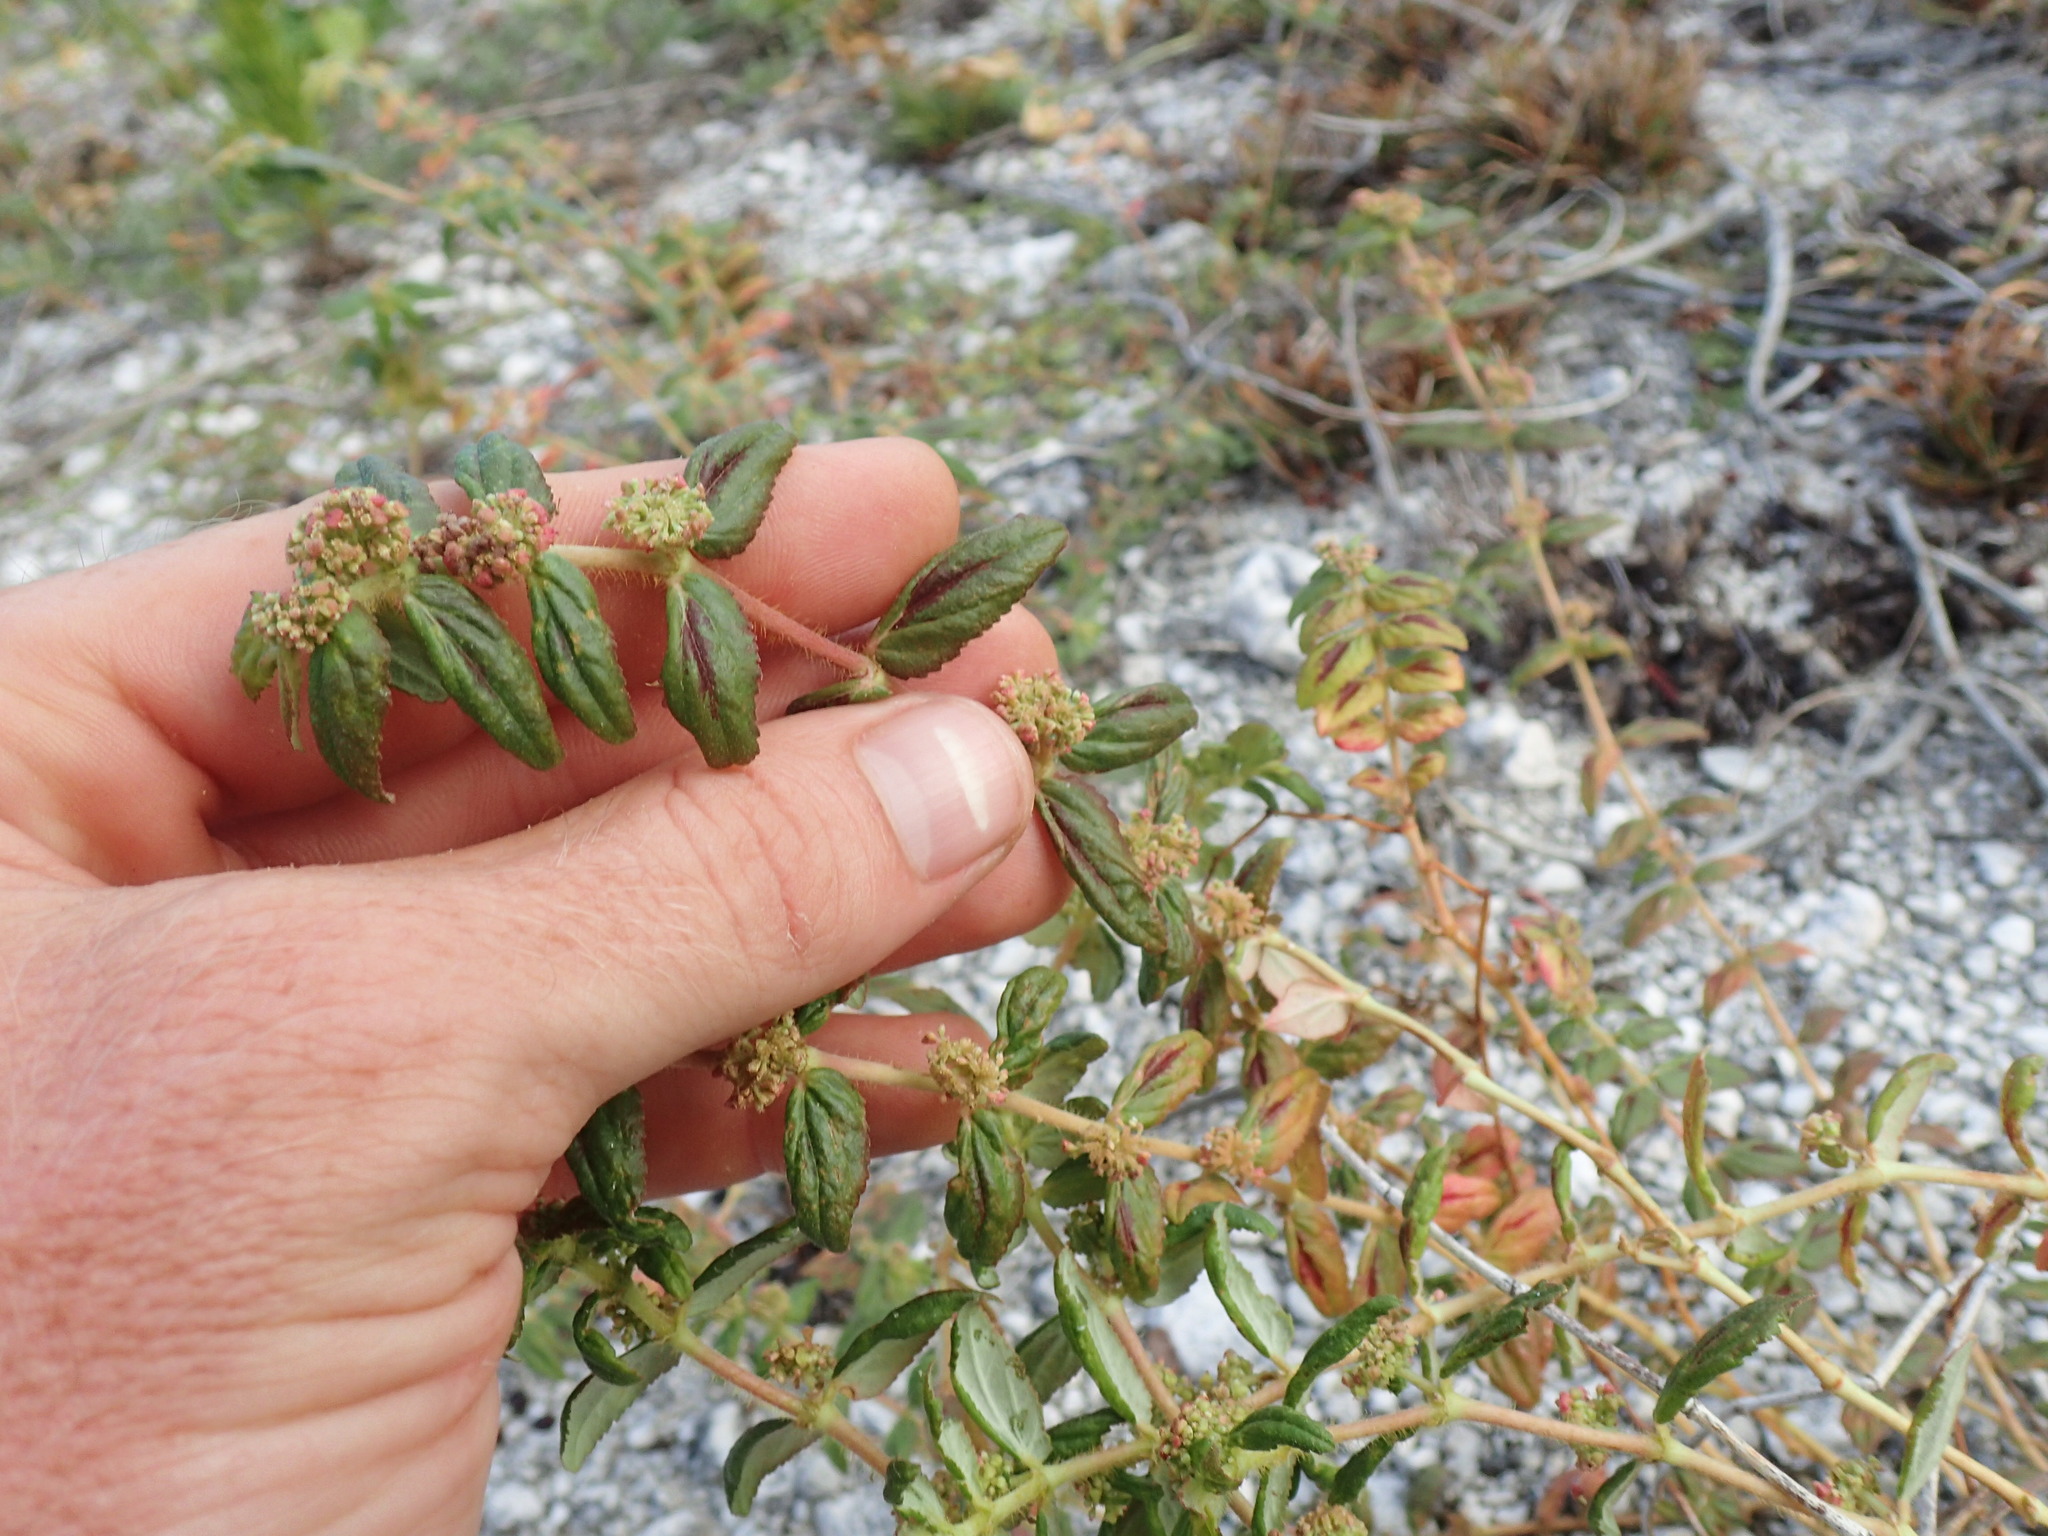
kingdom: Plantae
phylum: Tracheophyta
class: Magnoliopsida
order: Malpighiales
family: Euphorbiaceae
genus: Euphorbia
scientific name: Euphorbia hirta
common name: Pillpod sandmat
